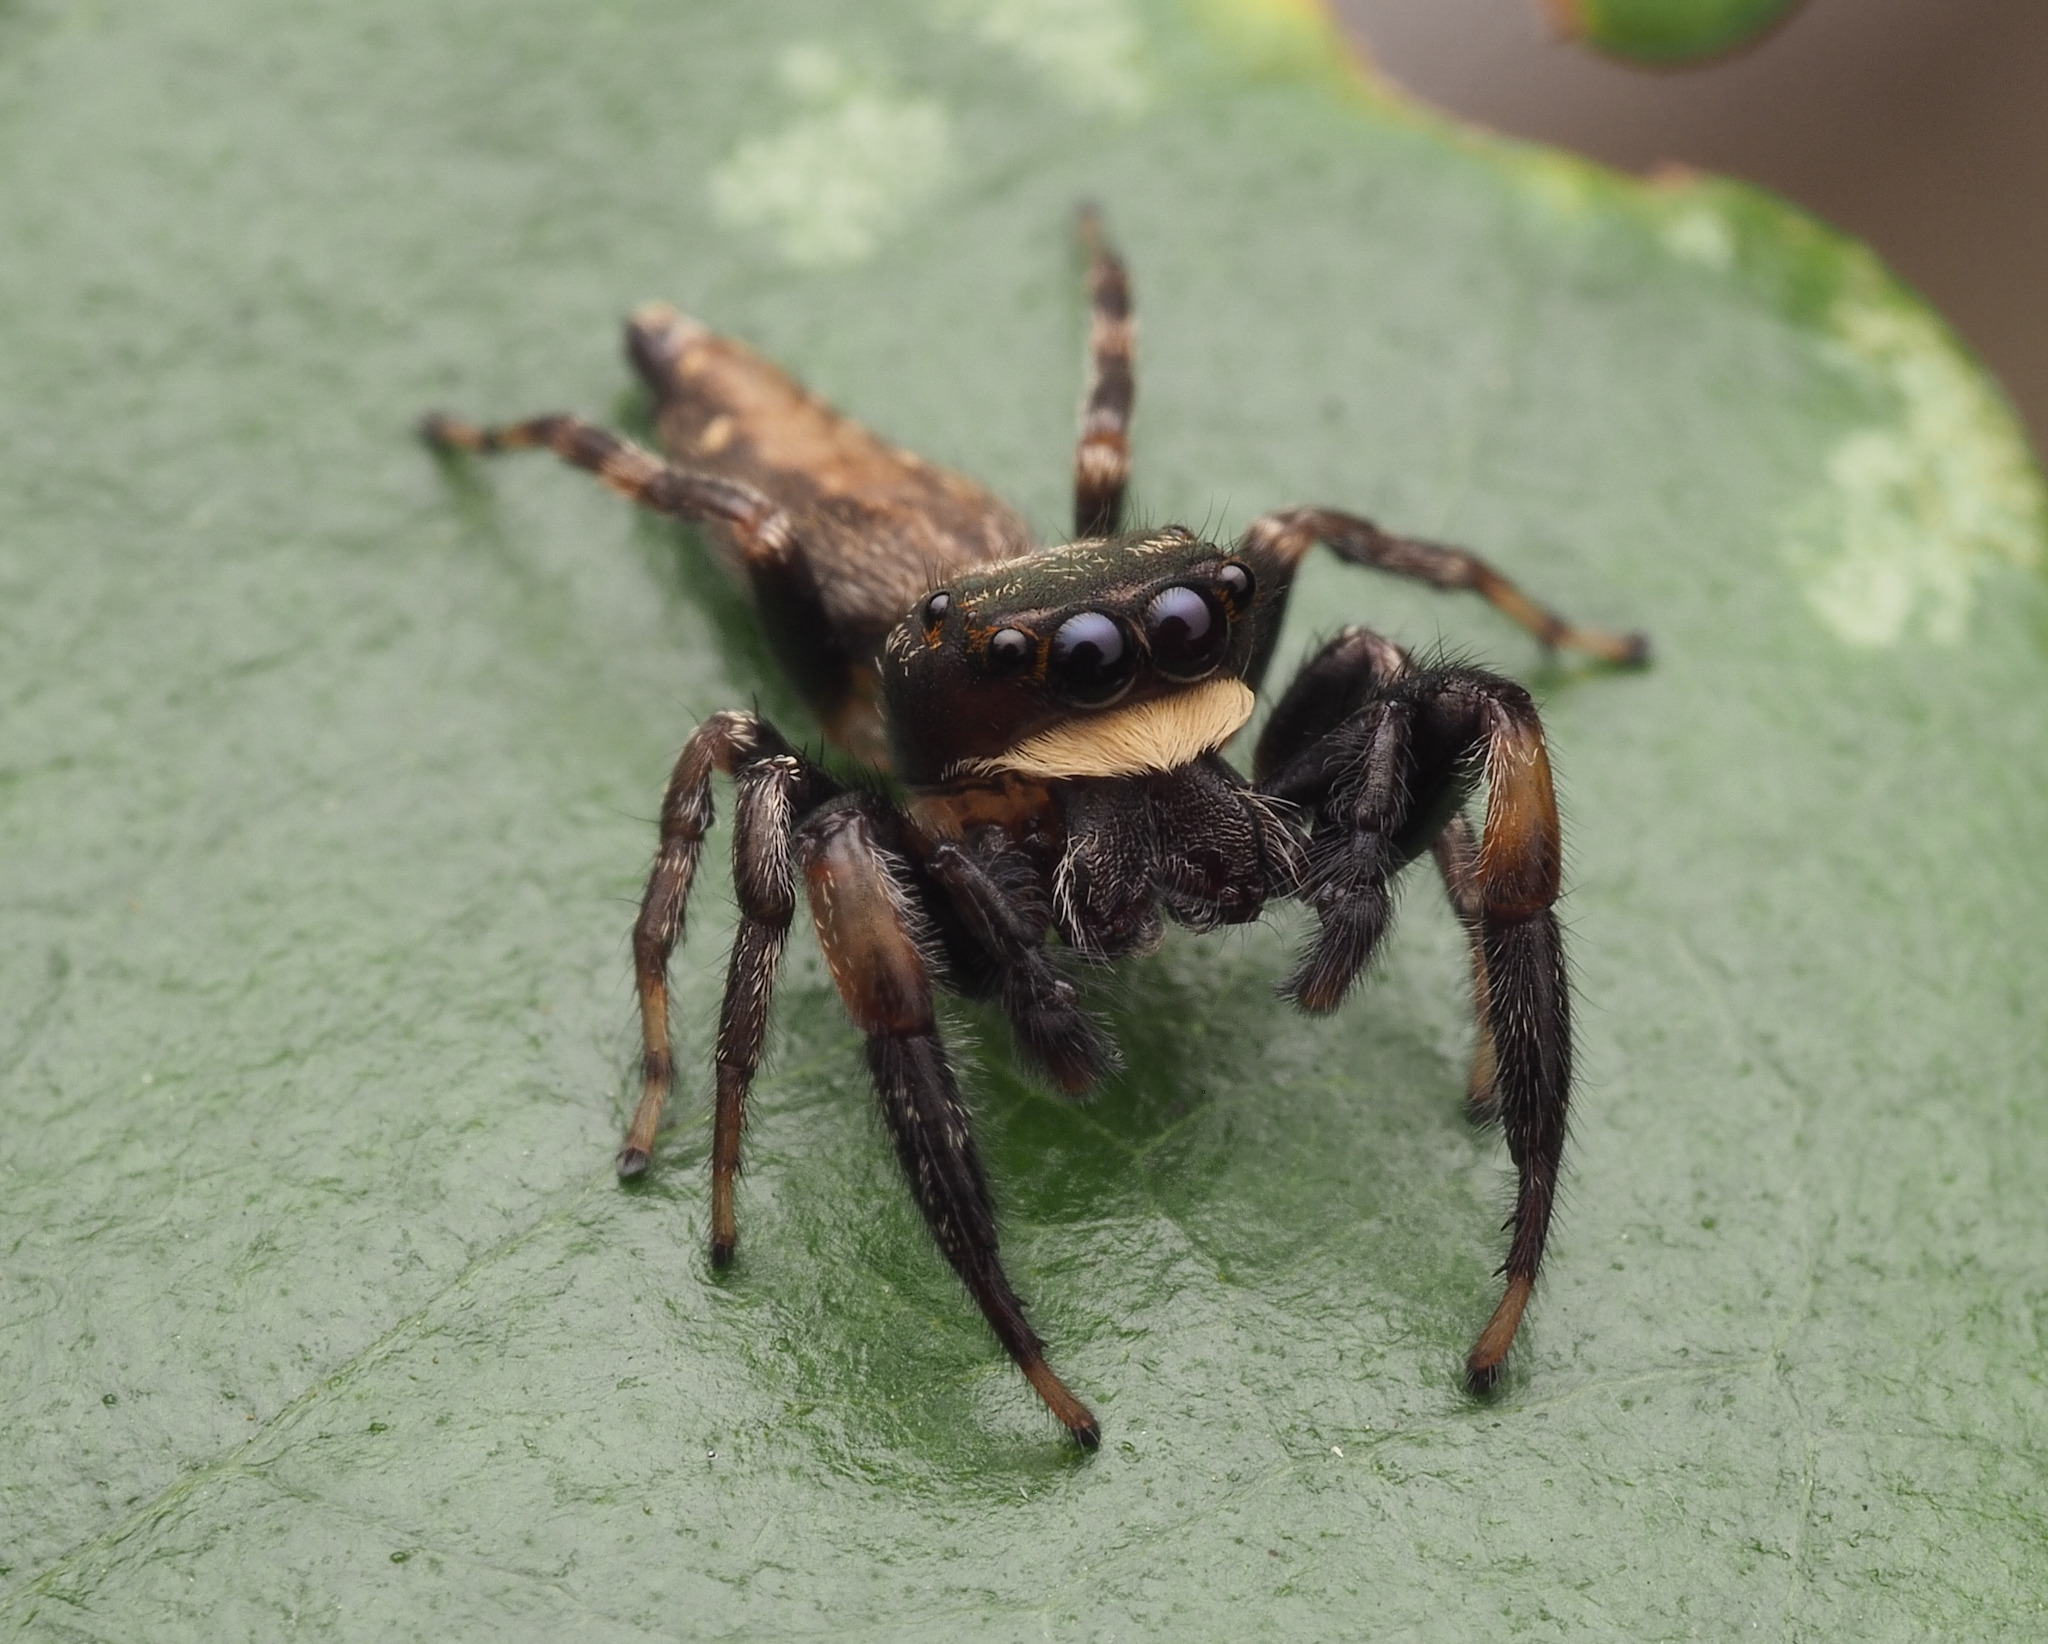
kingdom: Animalia
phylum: Arthropoda
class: Arachnida
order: Araneae
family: Salticidae
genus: Pungalina
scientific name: Pungalina
